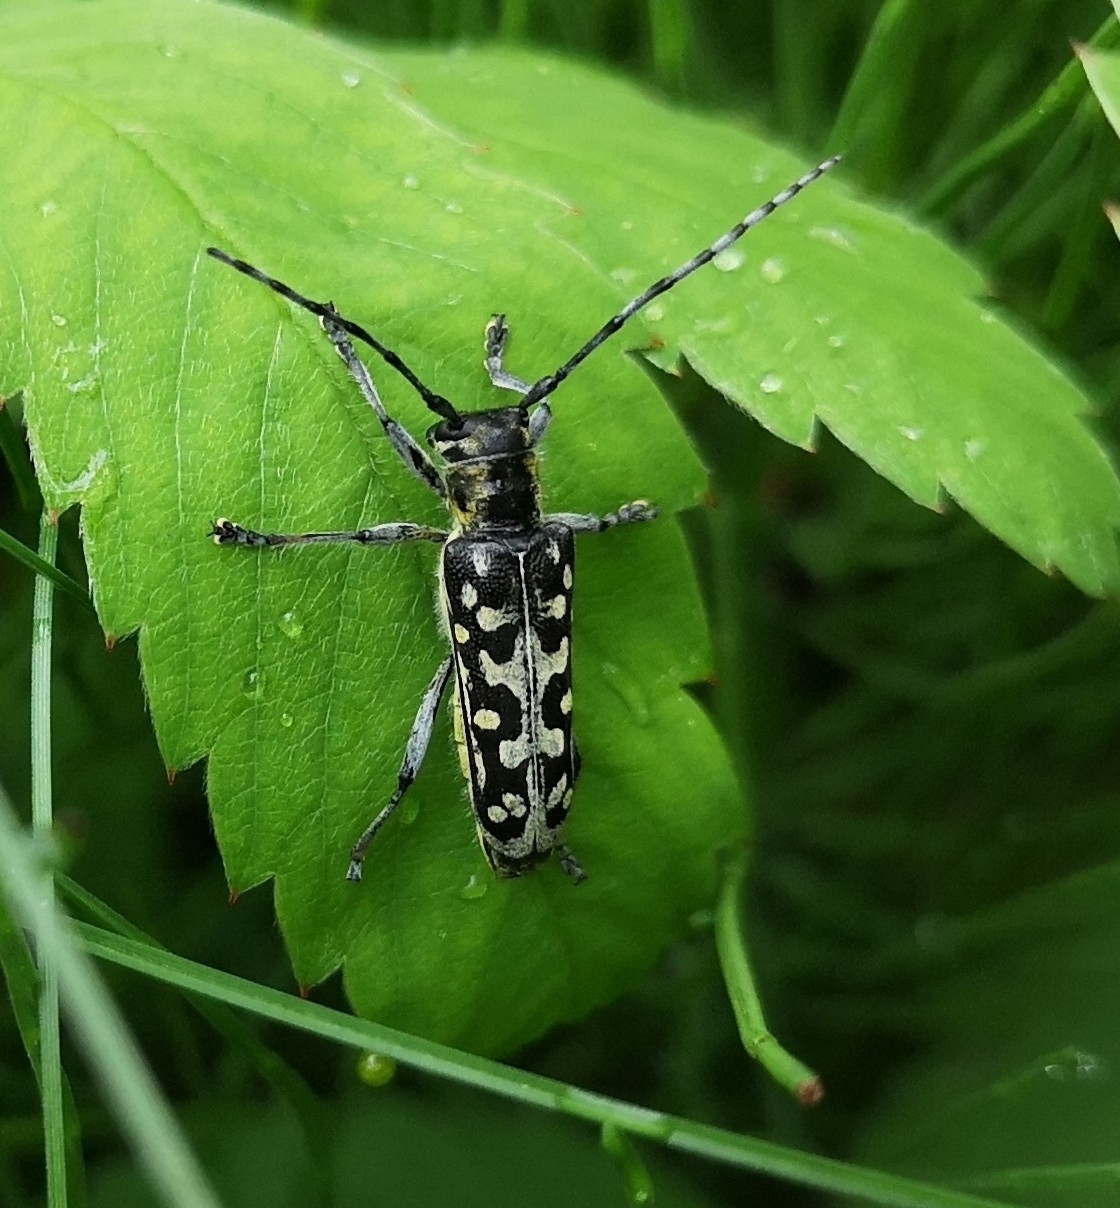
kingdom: Animalia
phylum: Arthropoda
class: Insecta
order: Coleoptera
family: Cerambycidae
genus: Saperda
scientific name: Saperda scalaris
